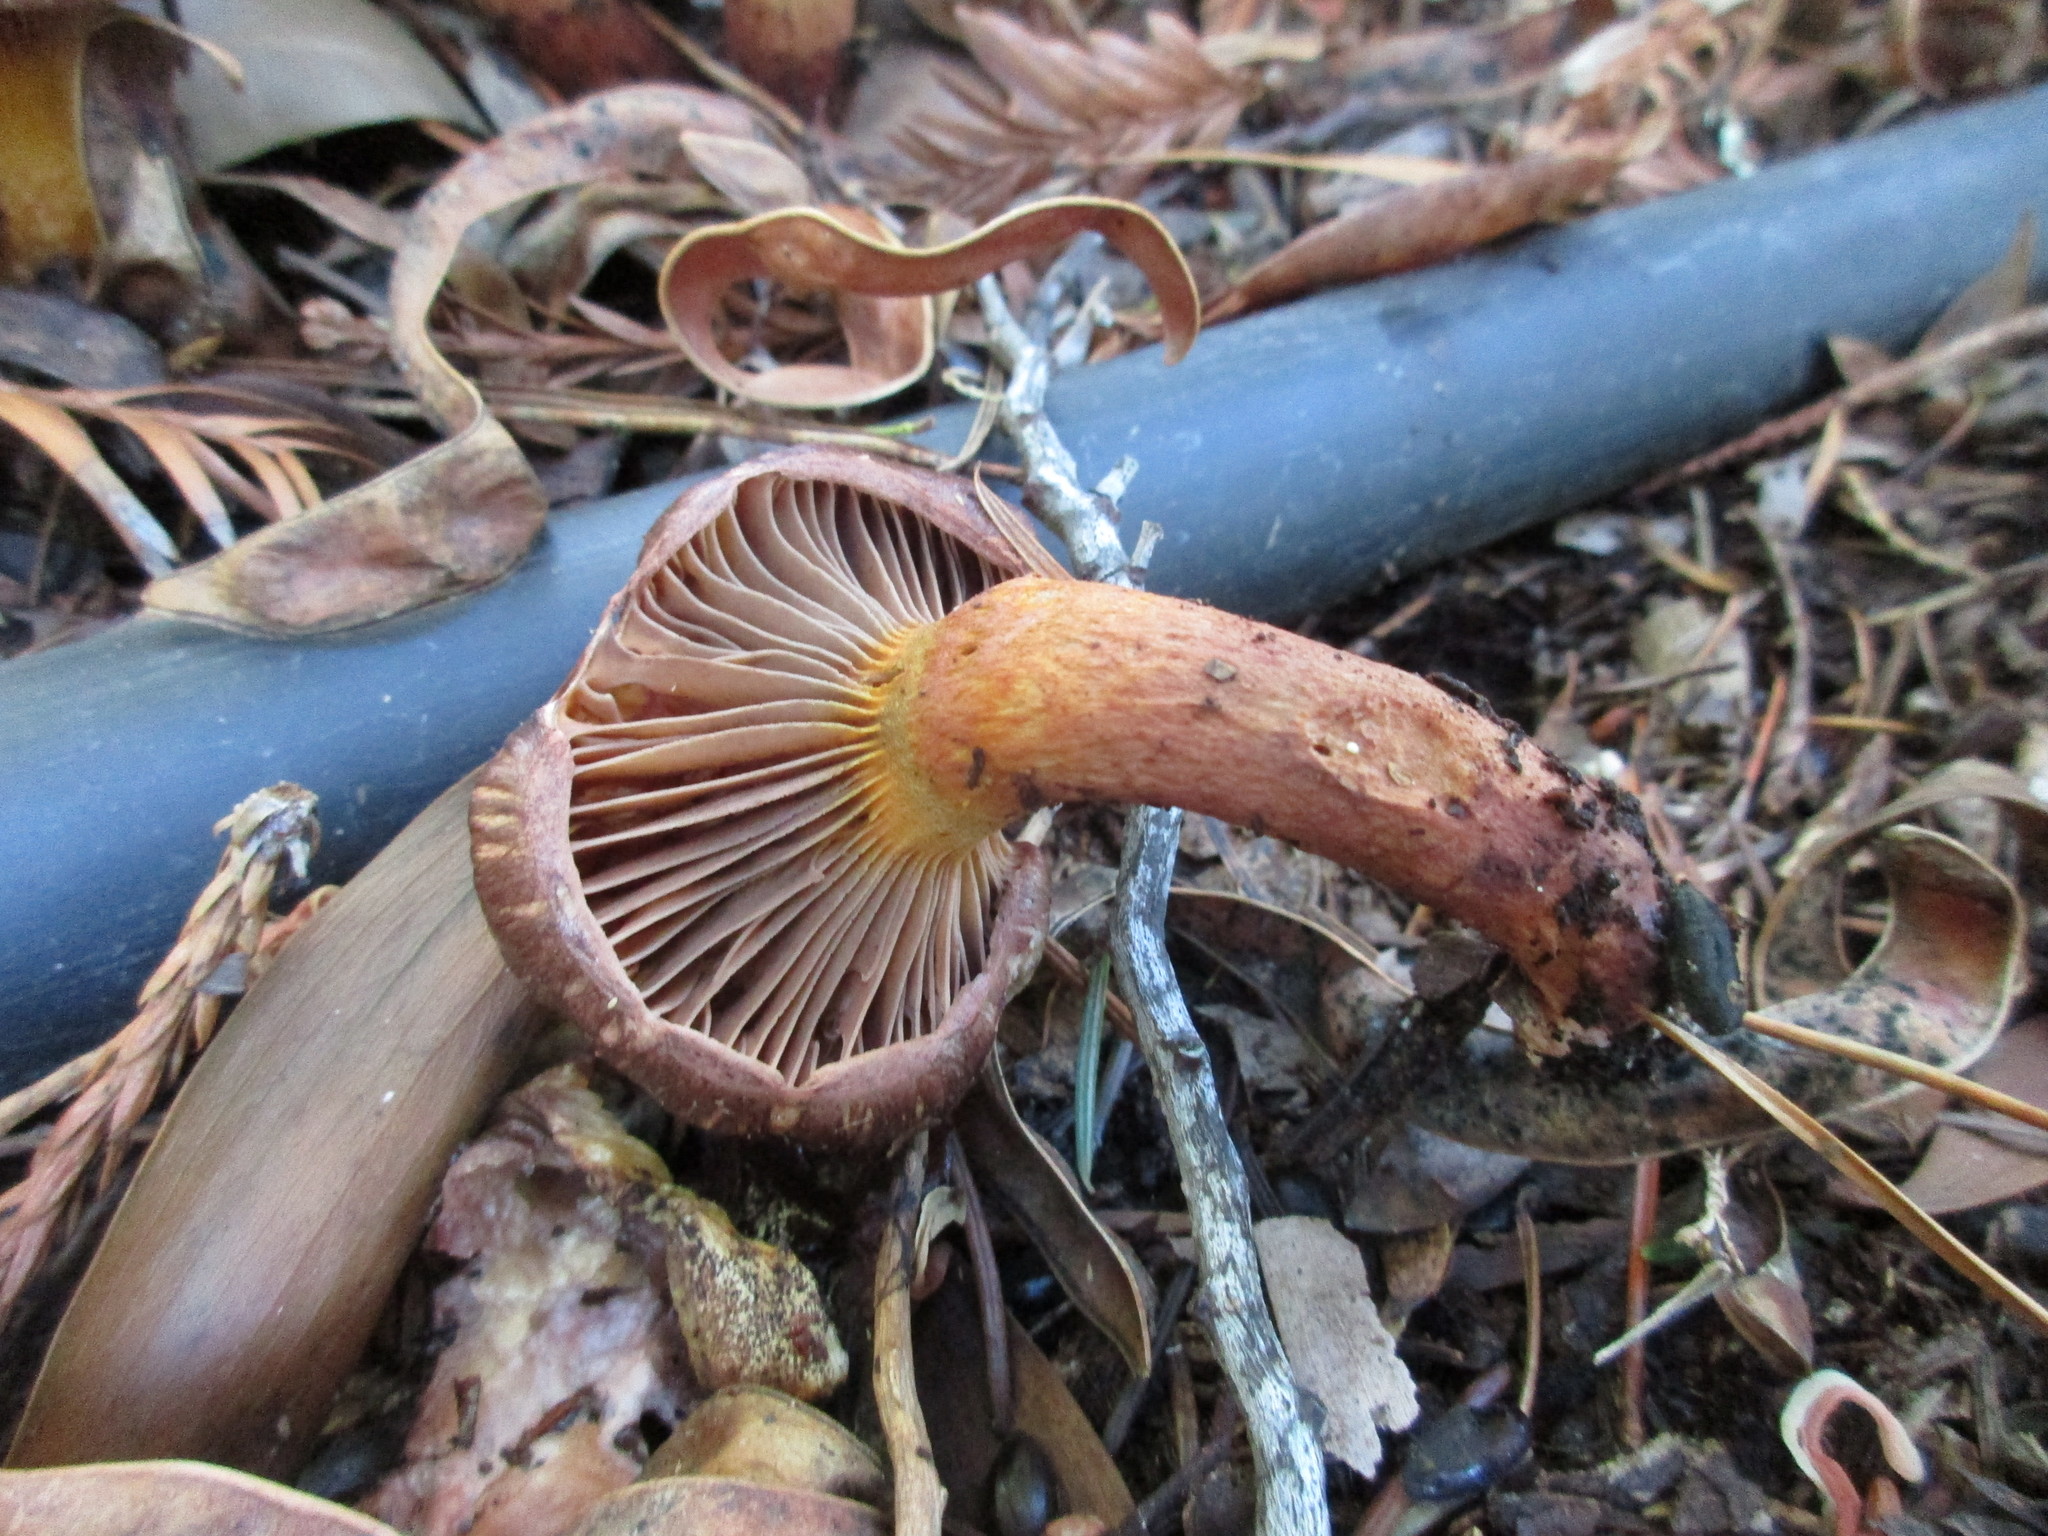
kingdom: Fungi
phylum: Basidiomycota
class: Agaricomycetes
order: Boletales
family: Gomphidiaceae
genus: Chroogomphus
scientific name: Chroogomphus vinicolor
